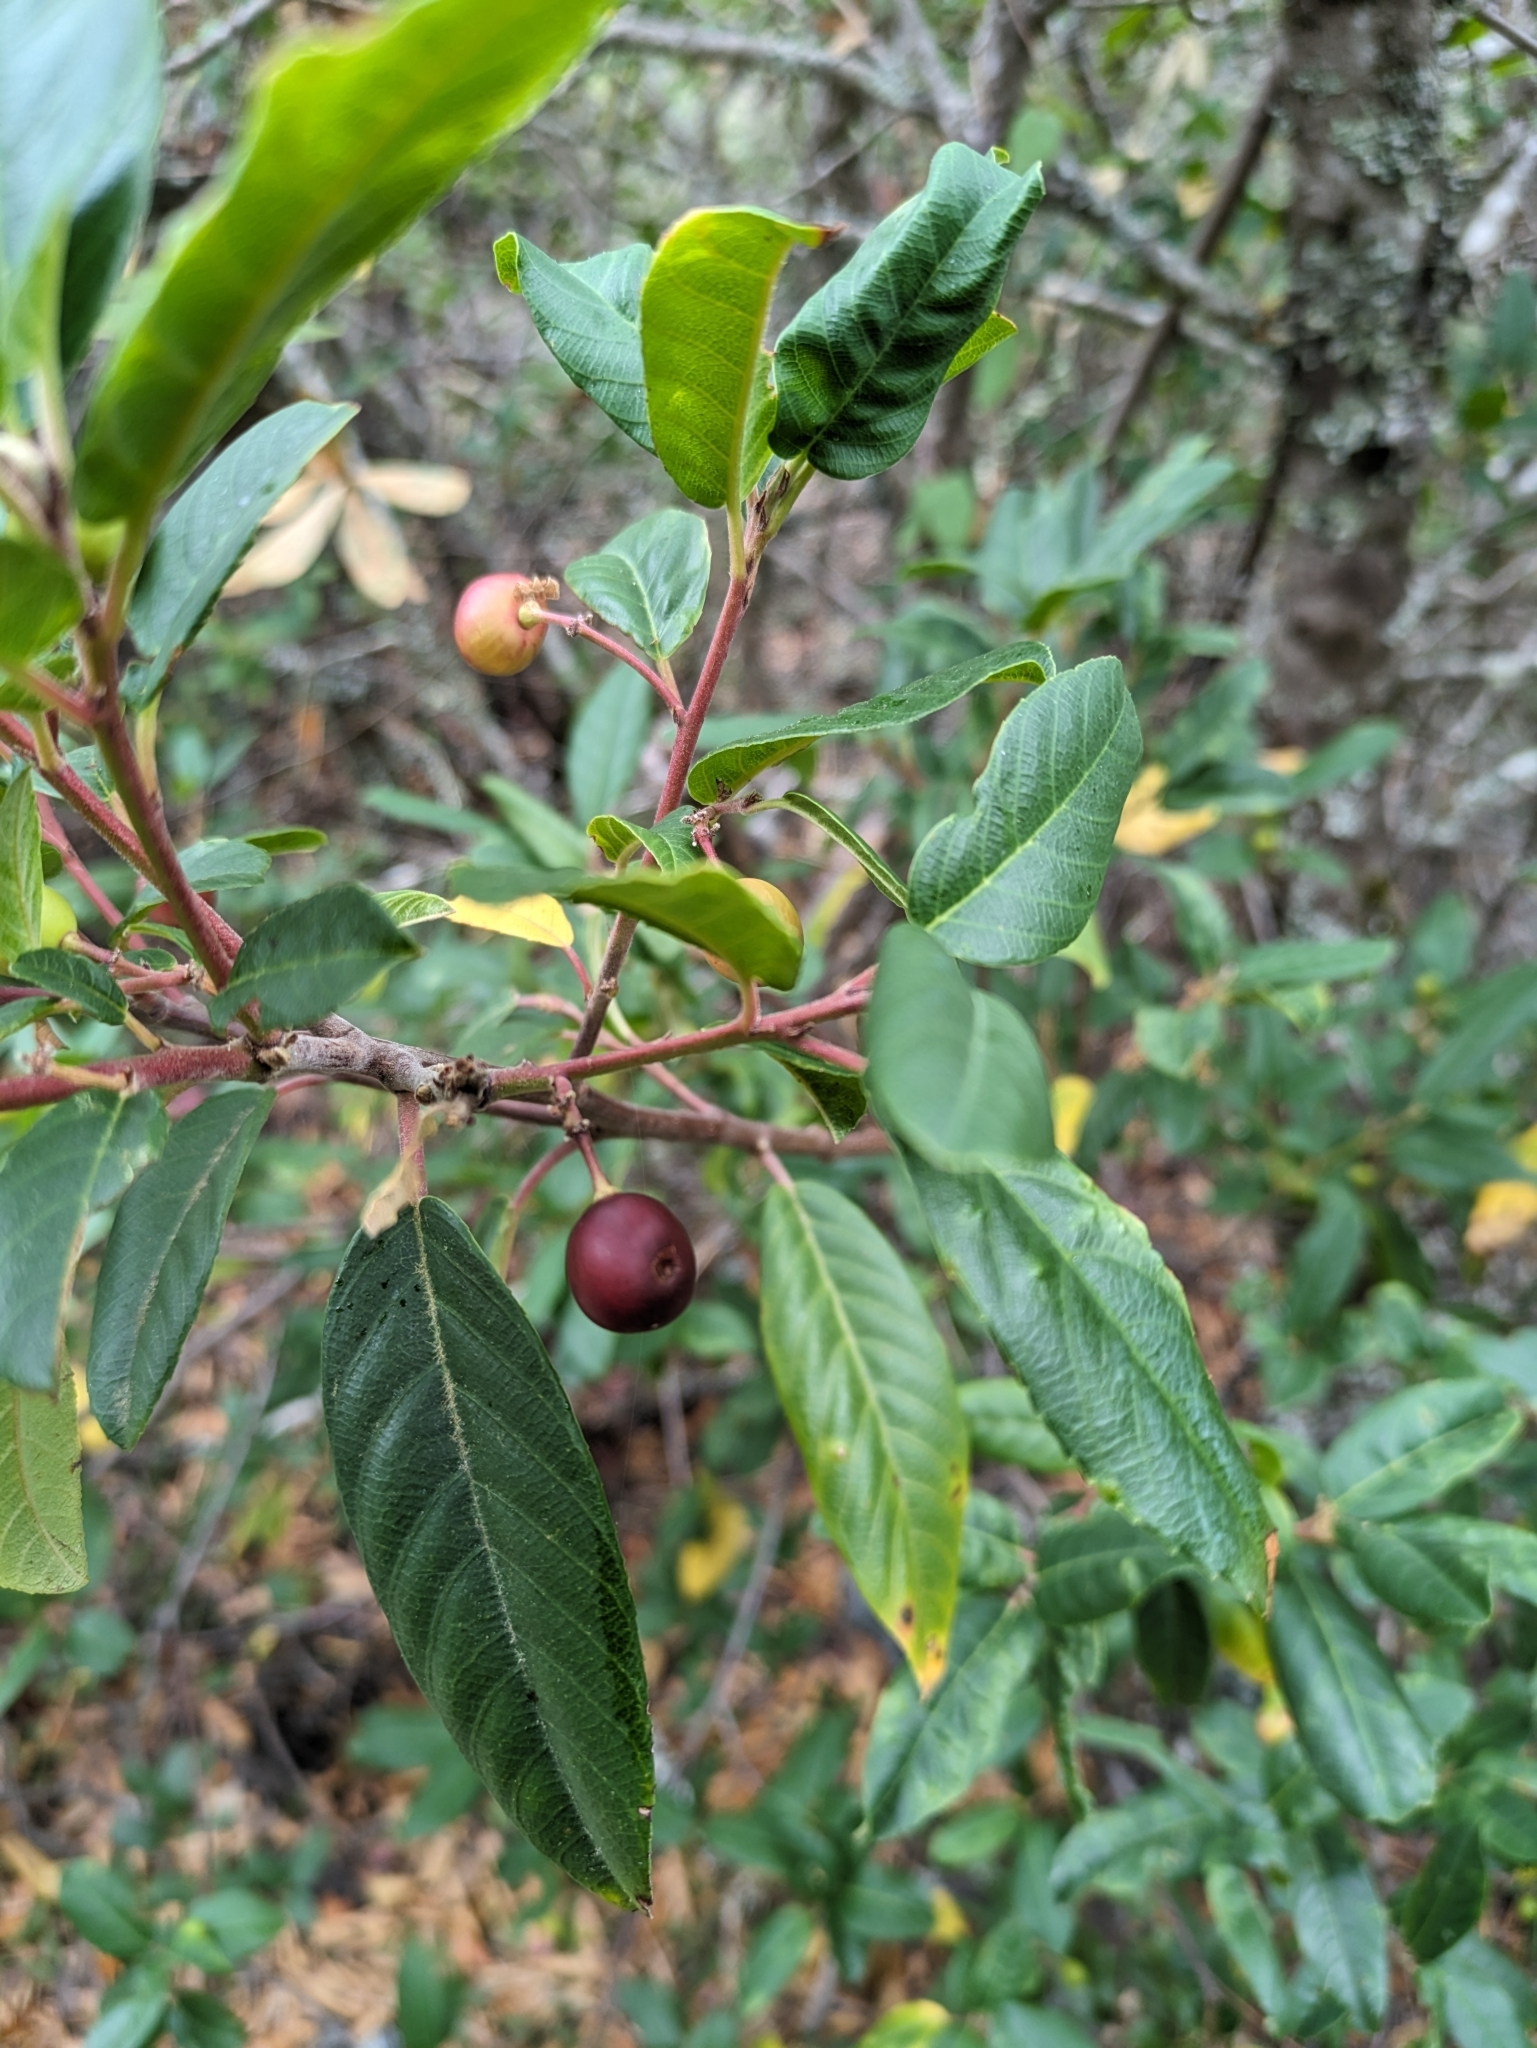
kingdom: Plantae
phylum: Tracheophyta
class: Magnoliopsida
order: Rosales
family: Rhamnaceae
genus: Frangula
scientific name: Frangula californica
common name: California buckthorn
